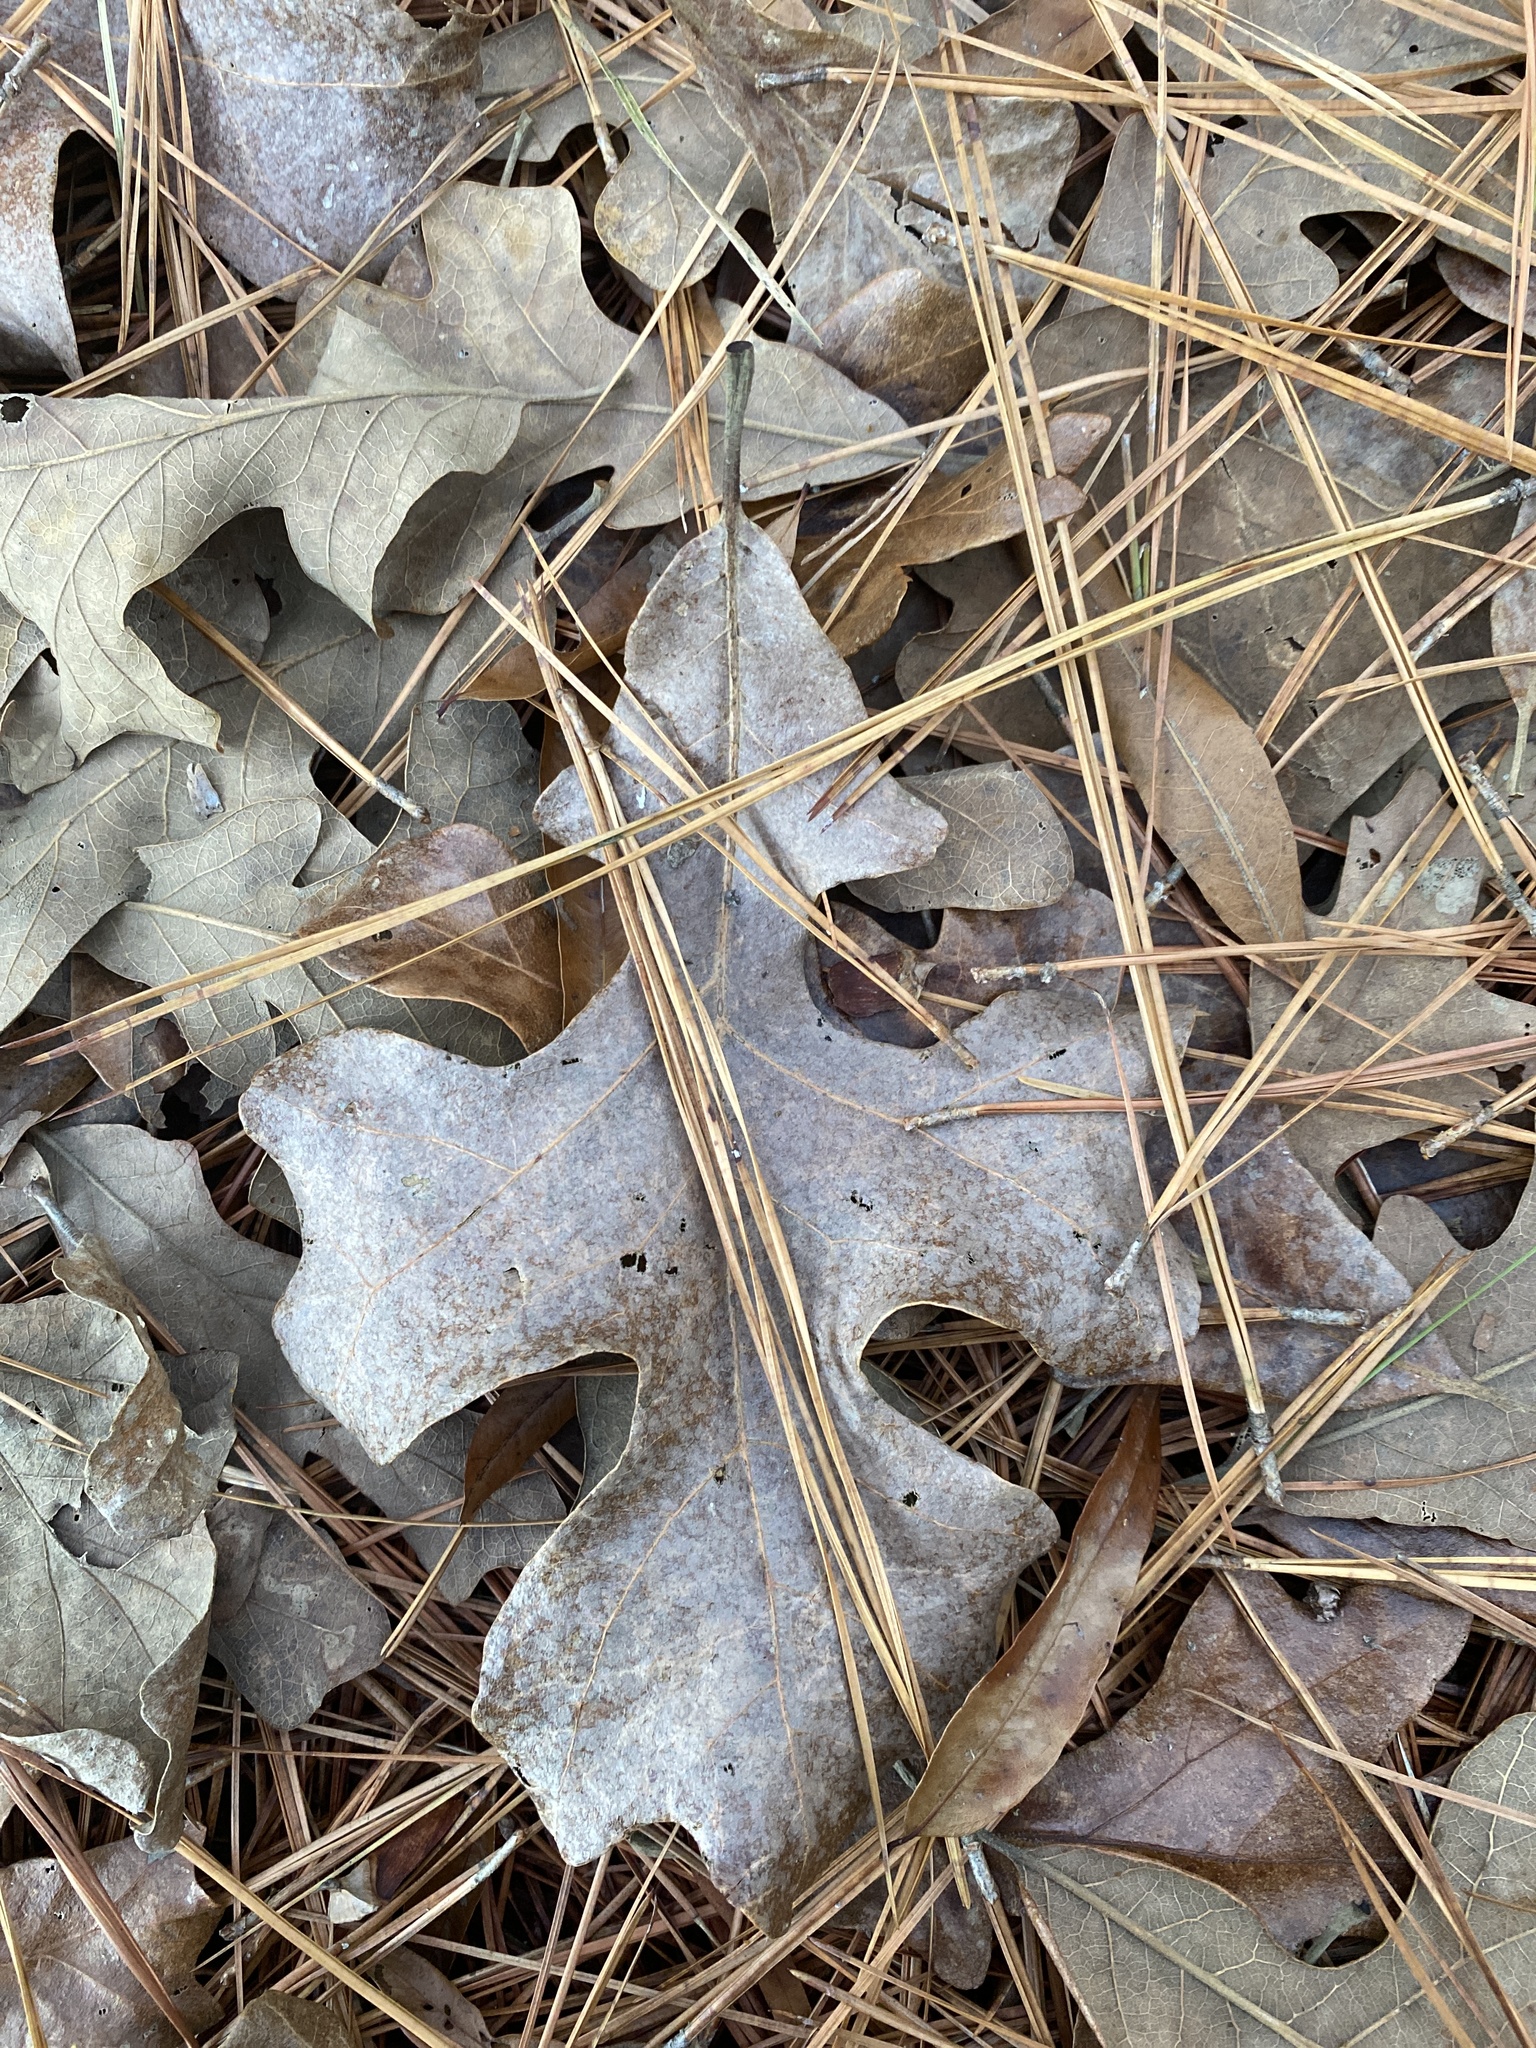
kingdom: Plantae
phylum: Tracheophyta
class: Magnoliopsida
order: Fagales
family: Fagaceae
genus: Quercus
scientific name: Quercus stellata
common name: Post oak
